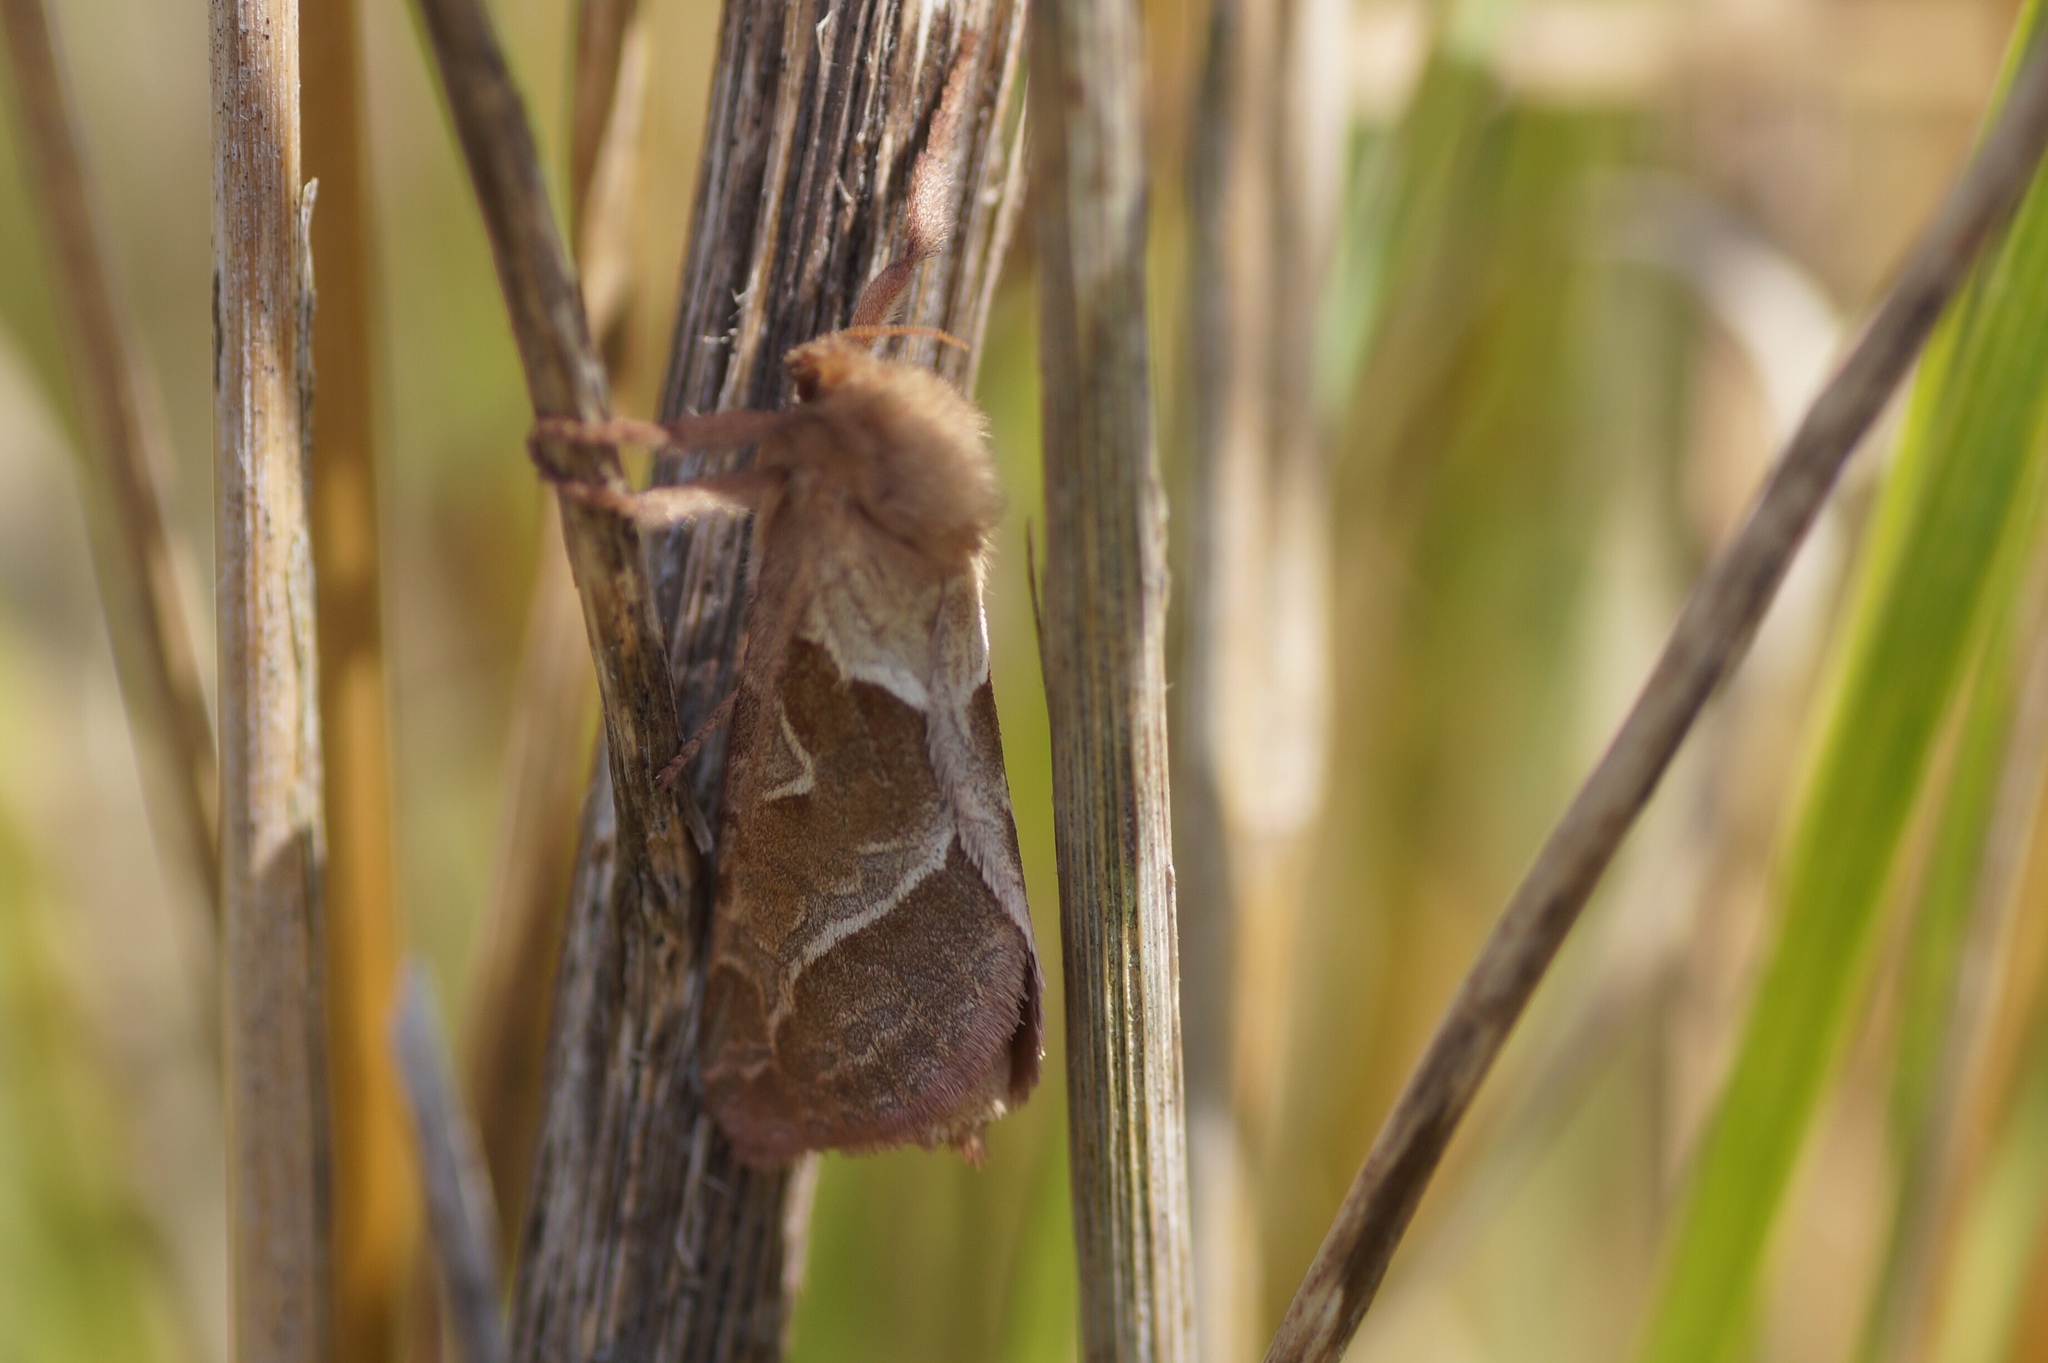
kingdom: Animalia
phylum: Arthropoda
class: Insecta
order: Lepidoptera
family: Hepialidae
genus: Triodia
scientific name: Triodia sylvina
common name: Orange swift
